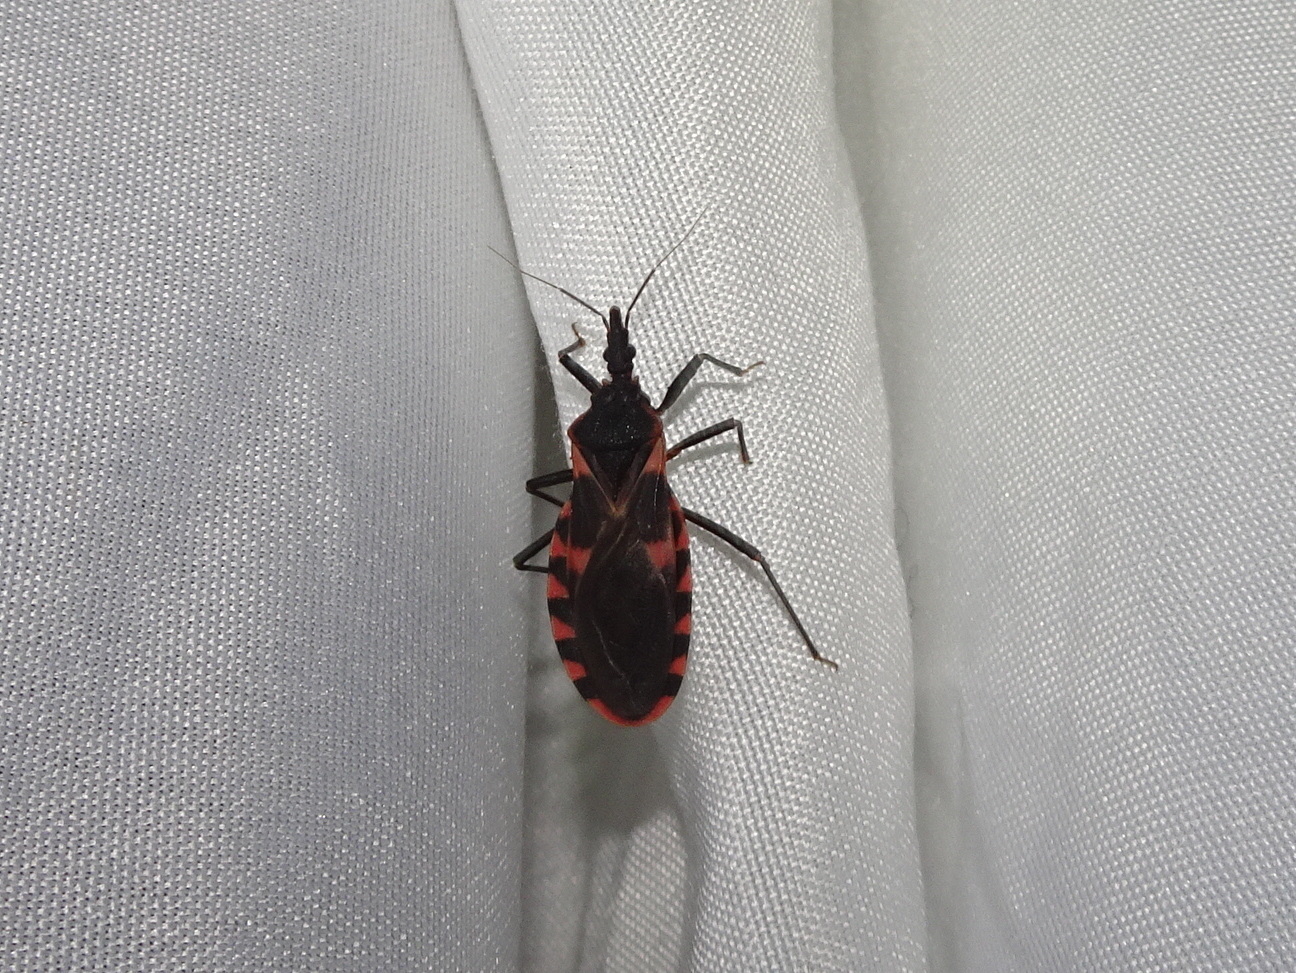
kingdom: Animalia
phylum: Arthropoda
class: Insecta
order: Hemiptera
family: Reduviidae
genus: Triatoma
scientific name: Triatoma sanguisuga
